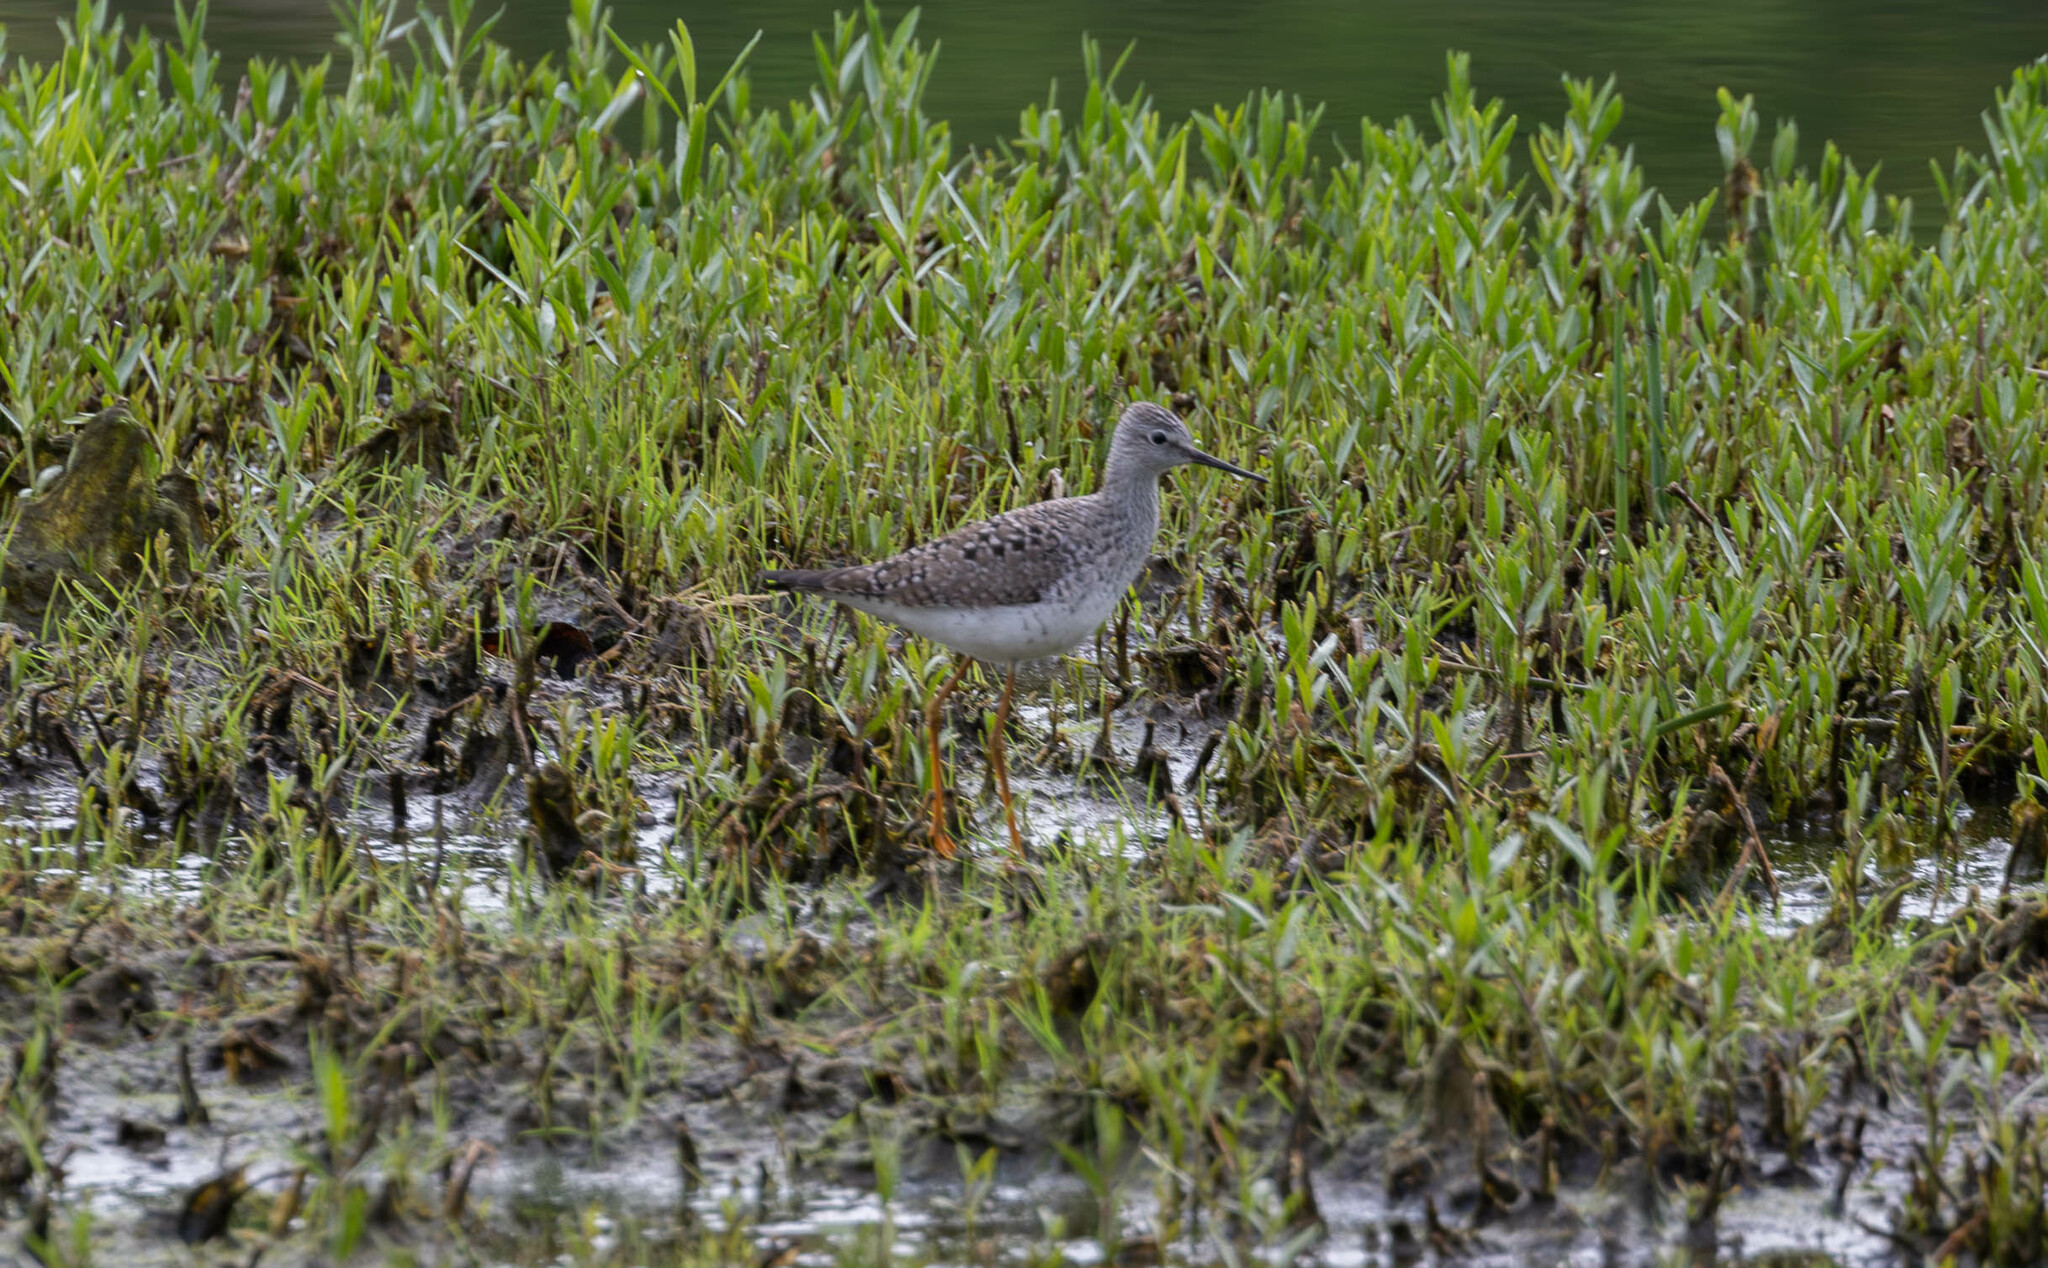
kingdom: Animalia
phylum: Chordata
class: Aves
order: Charadriiformes
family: Scolopacidae
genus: Tringa
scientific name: Tringa flavipes
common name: Lesser yellowlegs
